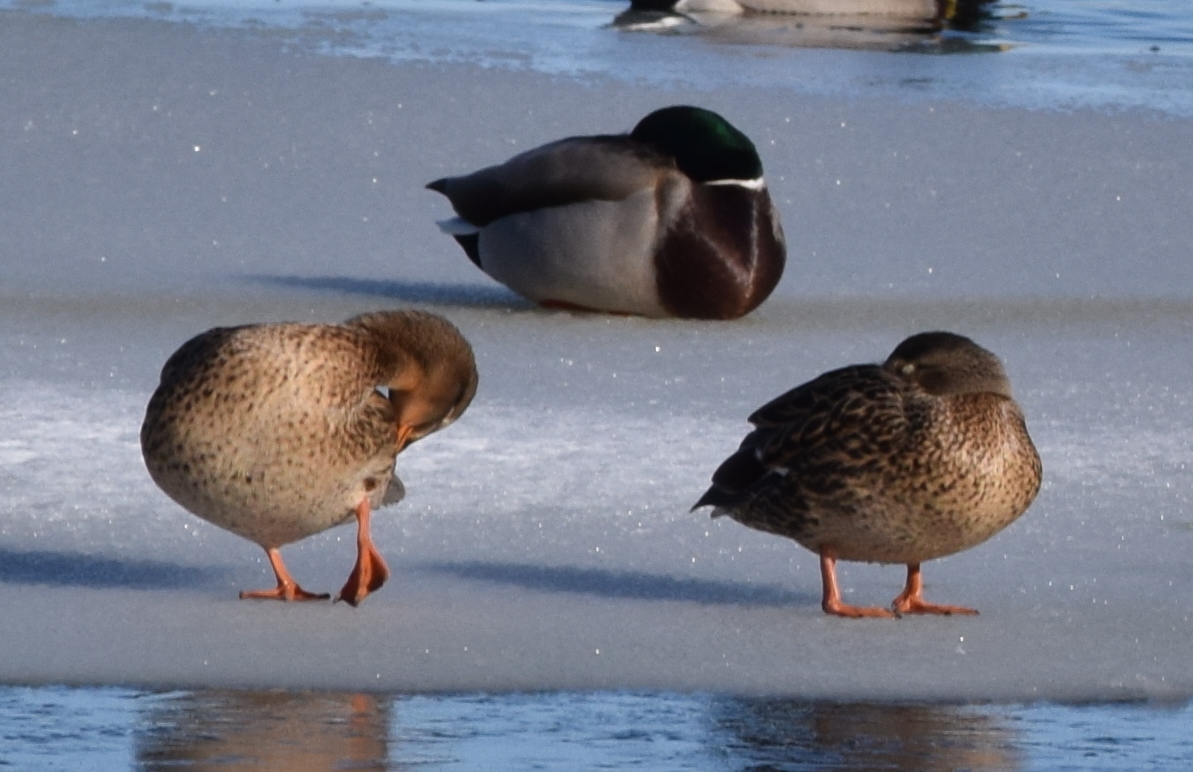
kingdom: Animalia
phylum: Chordata
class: Aves
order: Anseriformes
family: Anatidae
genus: Anas
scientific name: Anas platyrhynchos
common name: Mallard
